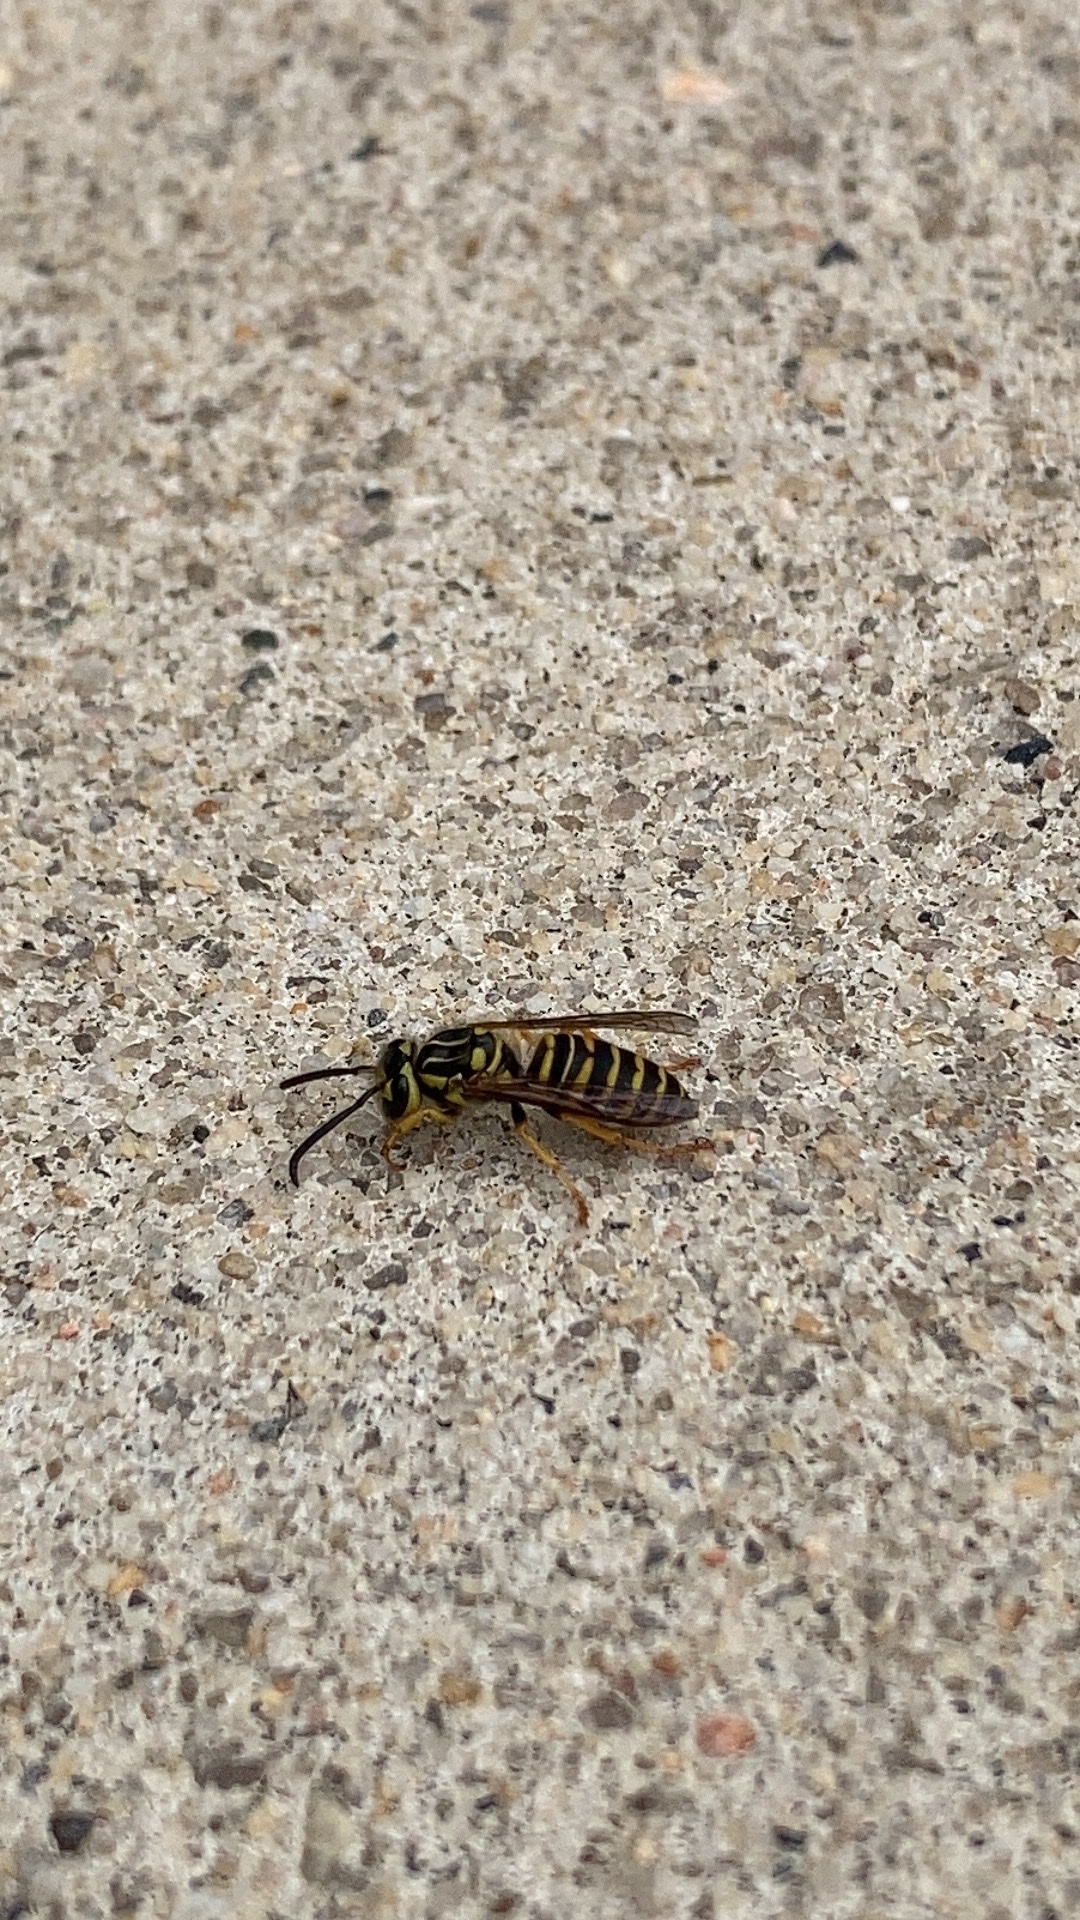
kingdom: Animalia
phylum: Arthropoda
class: Insecta
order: Hymenoptera
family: Vespidae
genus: Vespula
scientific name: Vespula squamosa
